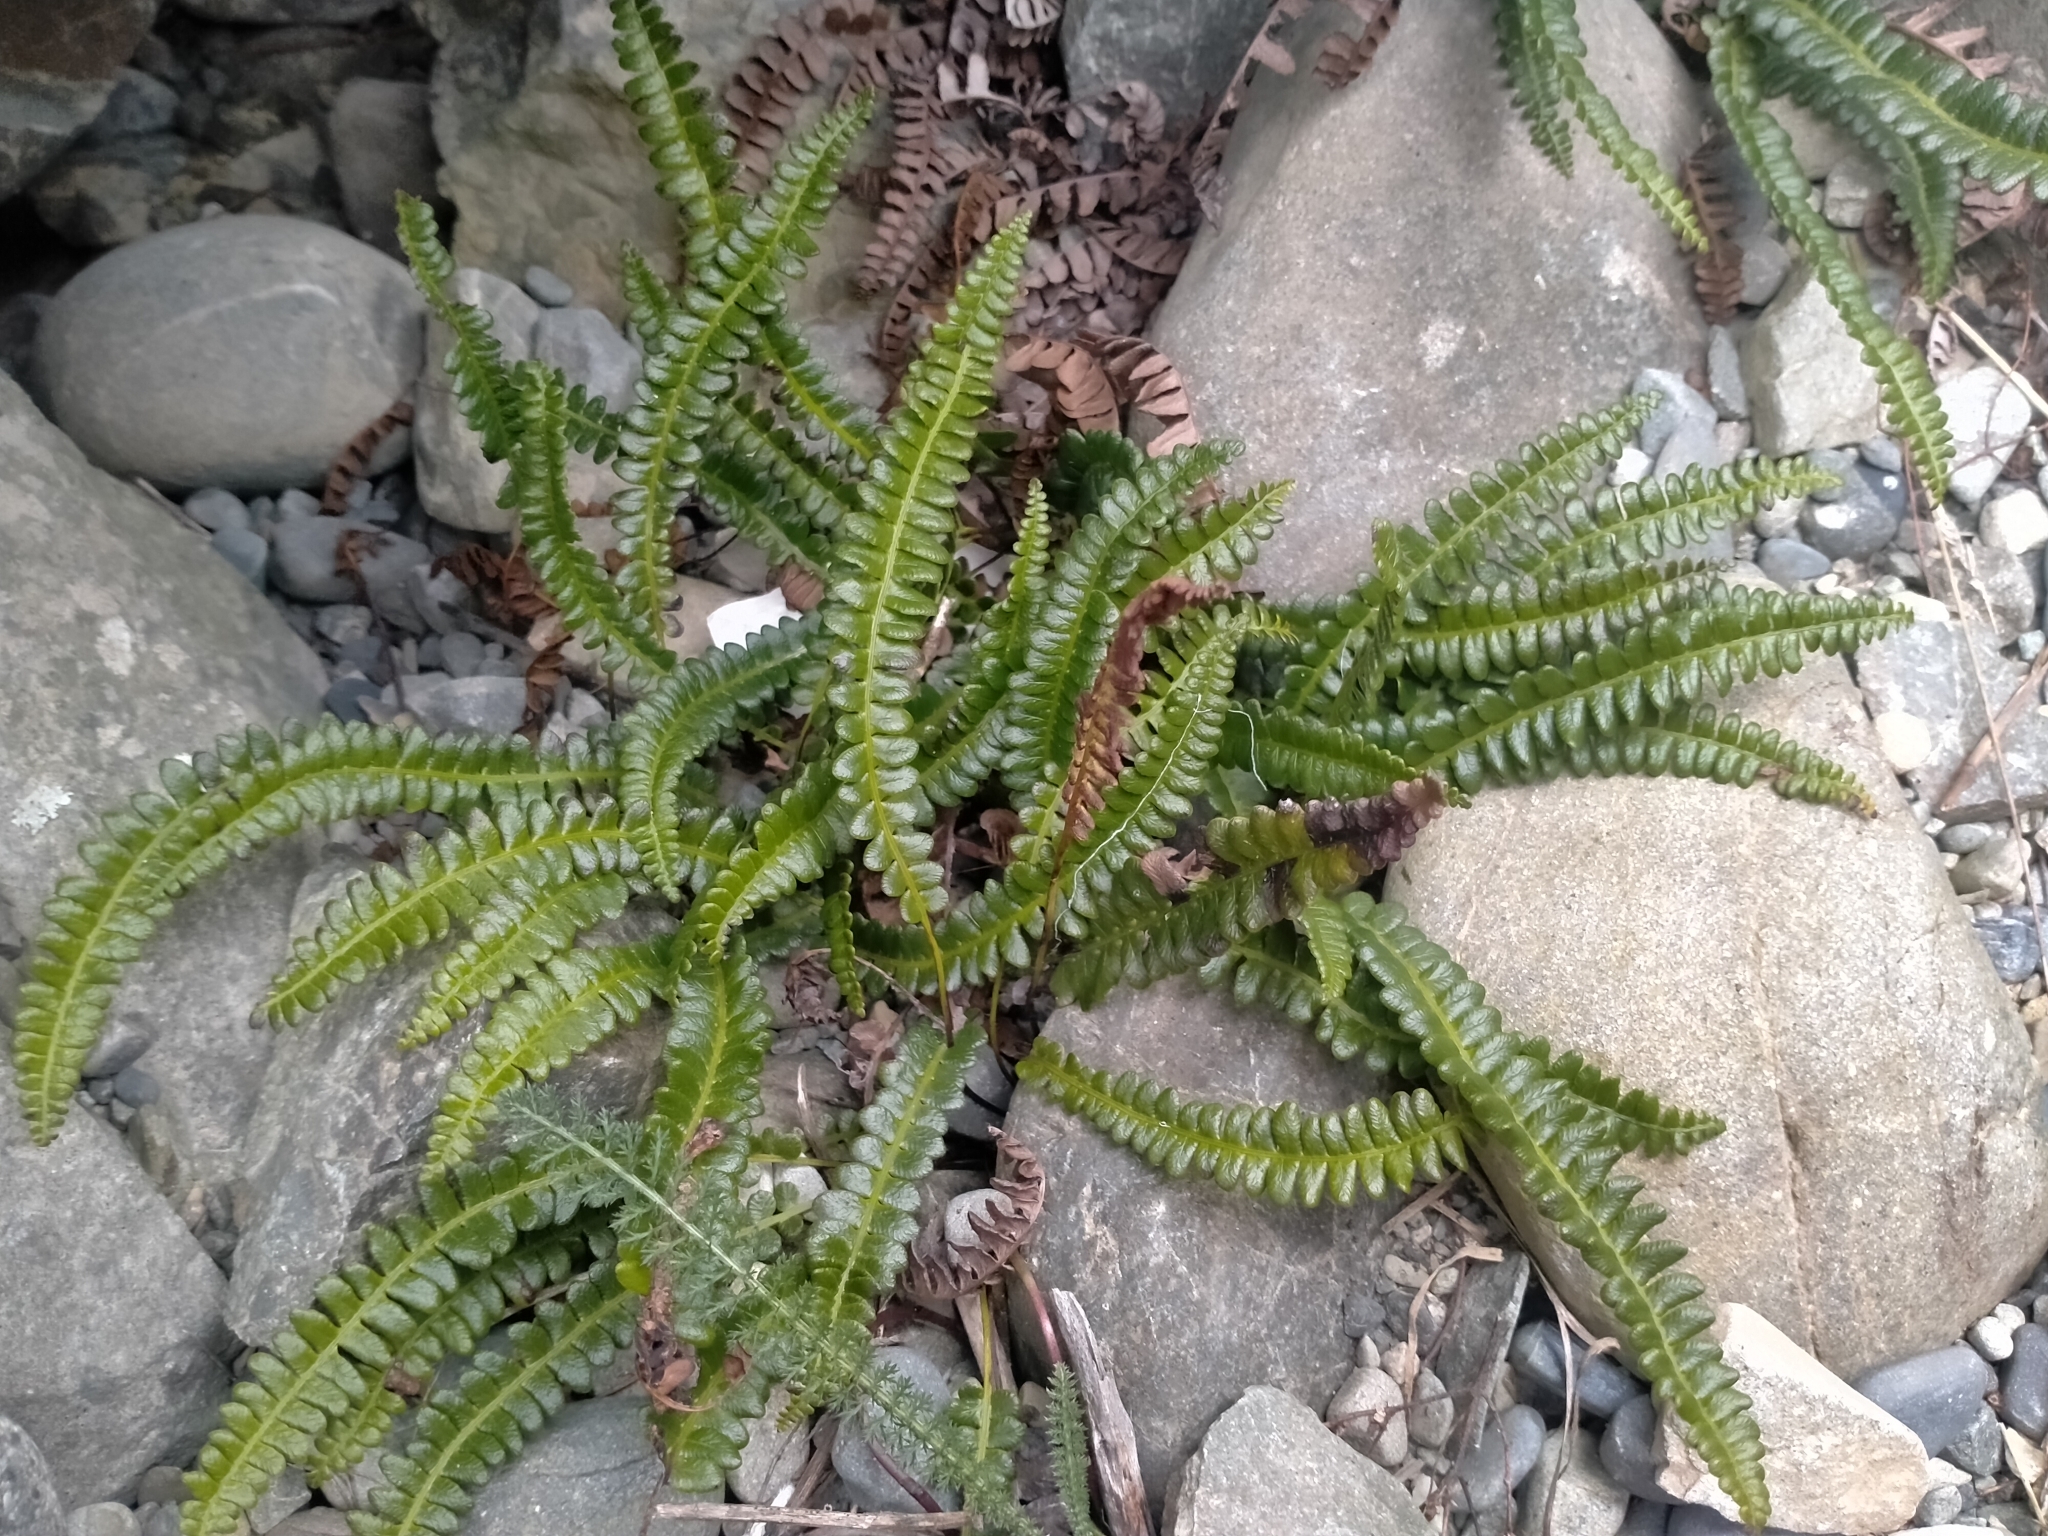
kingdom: Plantae
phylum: Tracheophyta
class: Polypodiopsida
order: Polypodiales
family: Blechnaceae
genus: Austroblechnum
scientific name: Austroblechnum penna-marina
